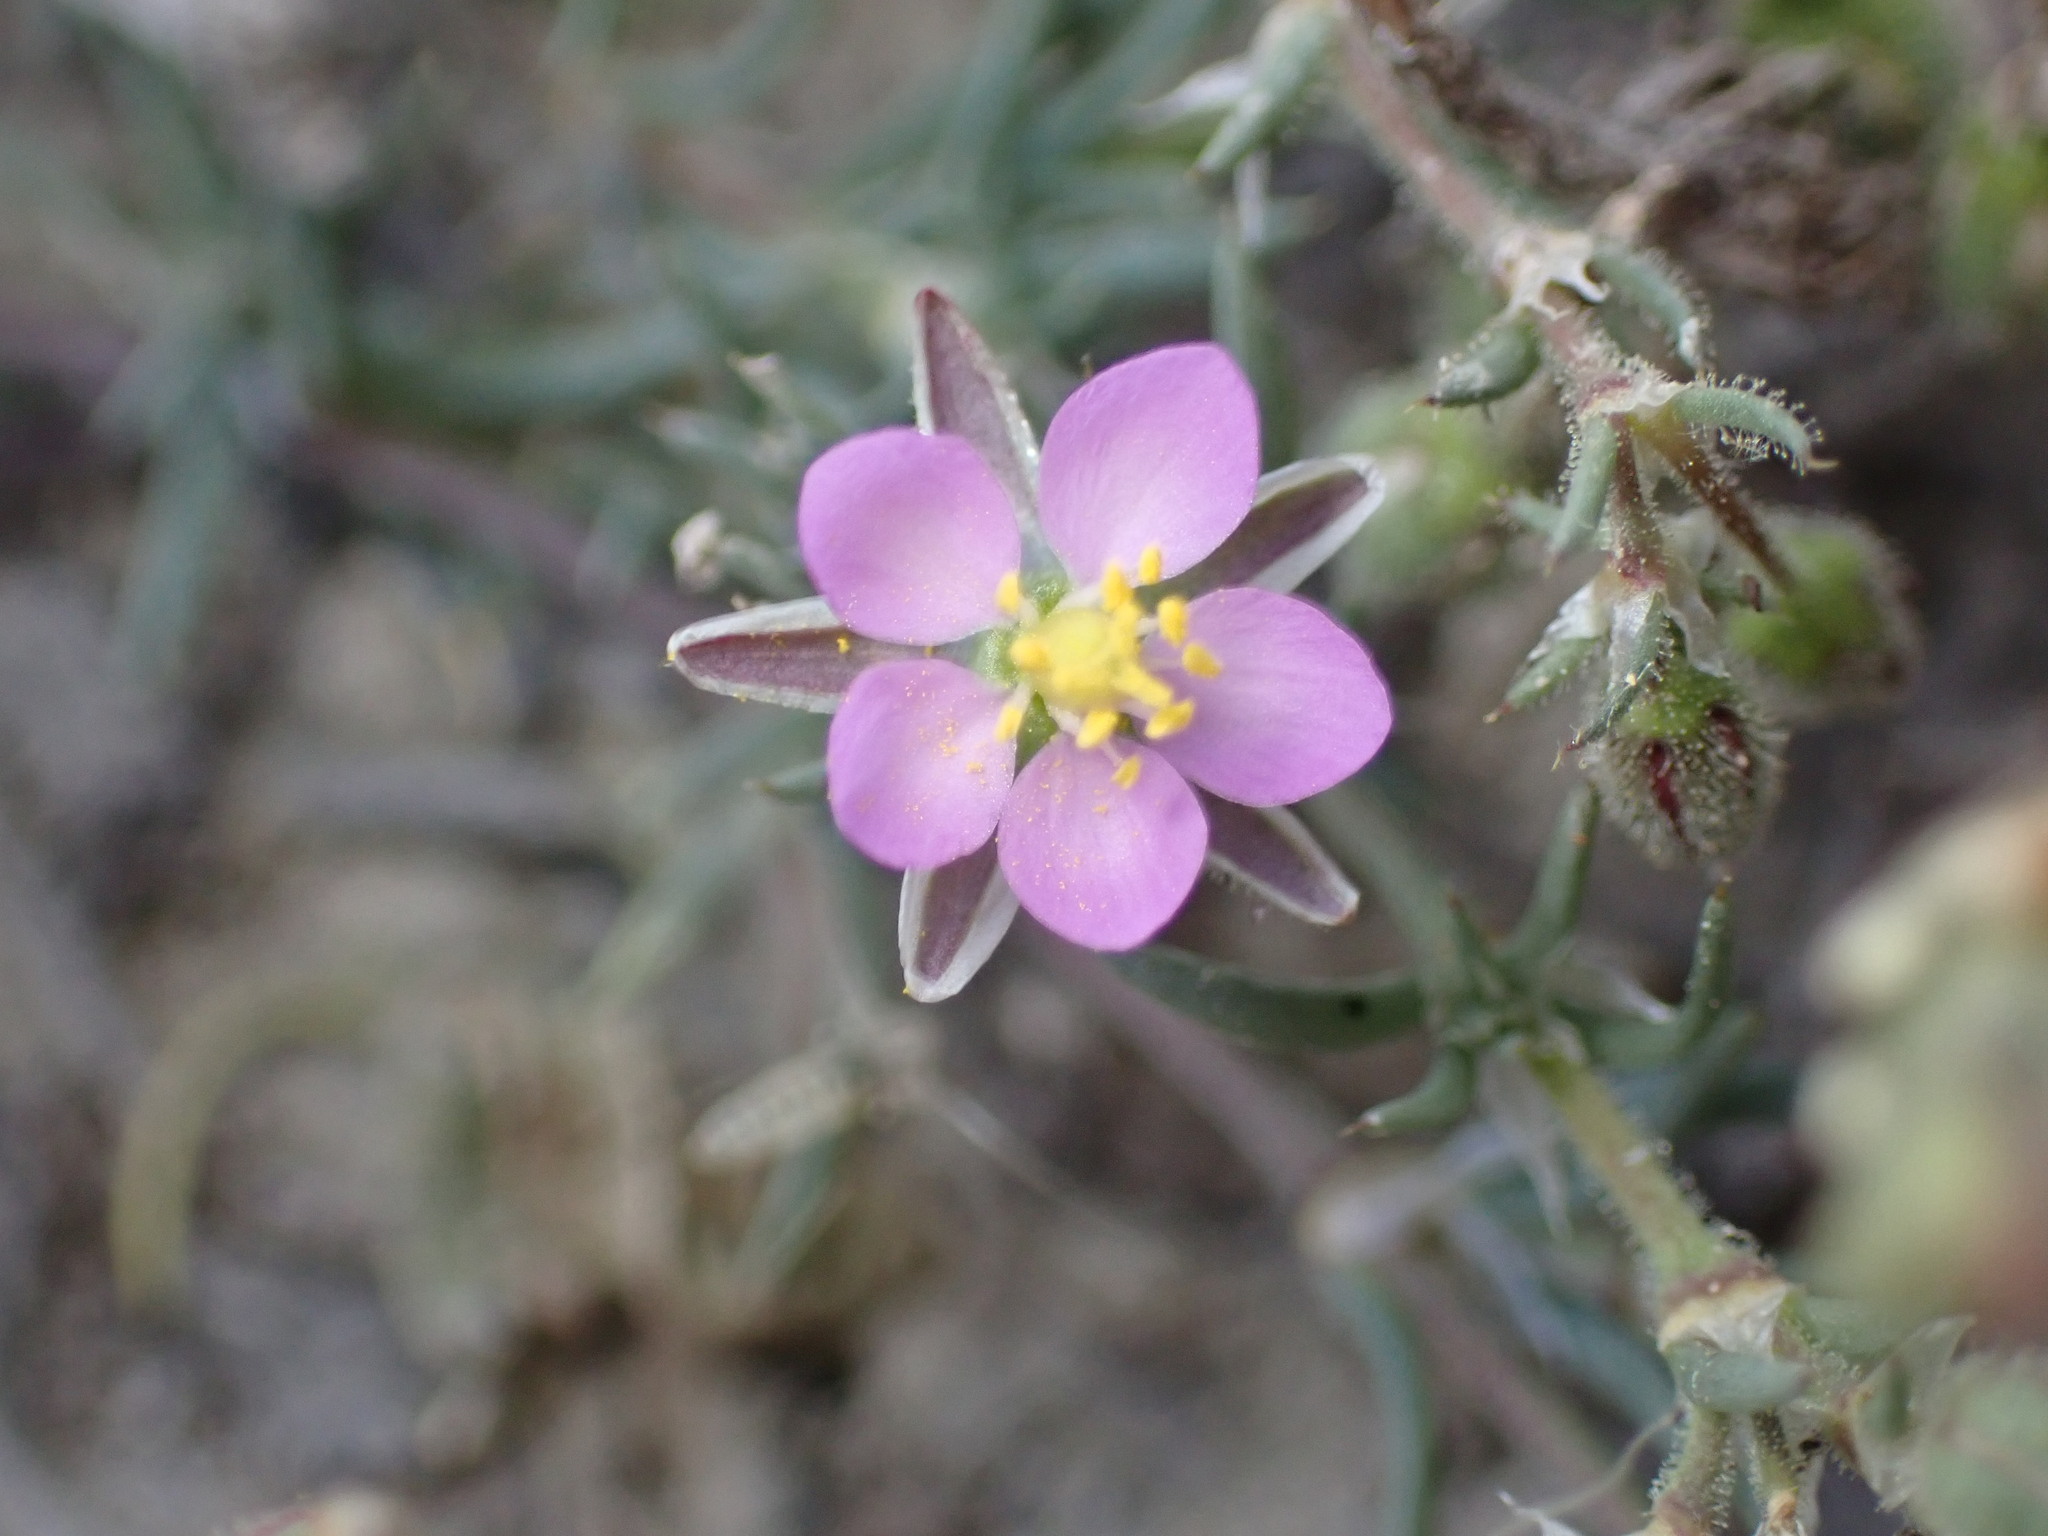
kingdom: Plantae
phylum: Tracheophyta
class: Magnoliopsida
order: Caryophyllales
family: Caryophyllaceae
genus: Spergularia
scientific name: Spergularia rubra
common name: Red sand-spurrey
